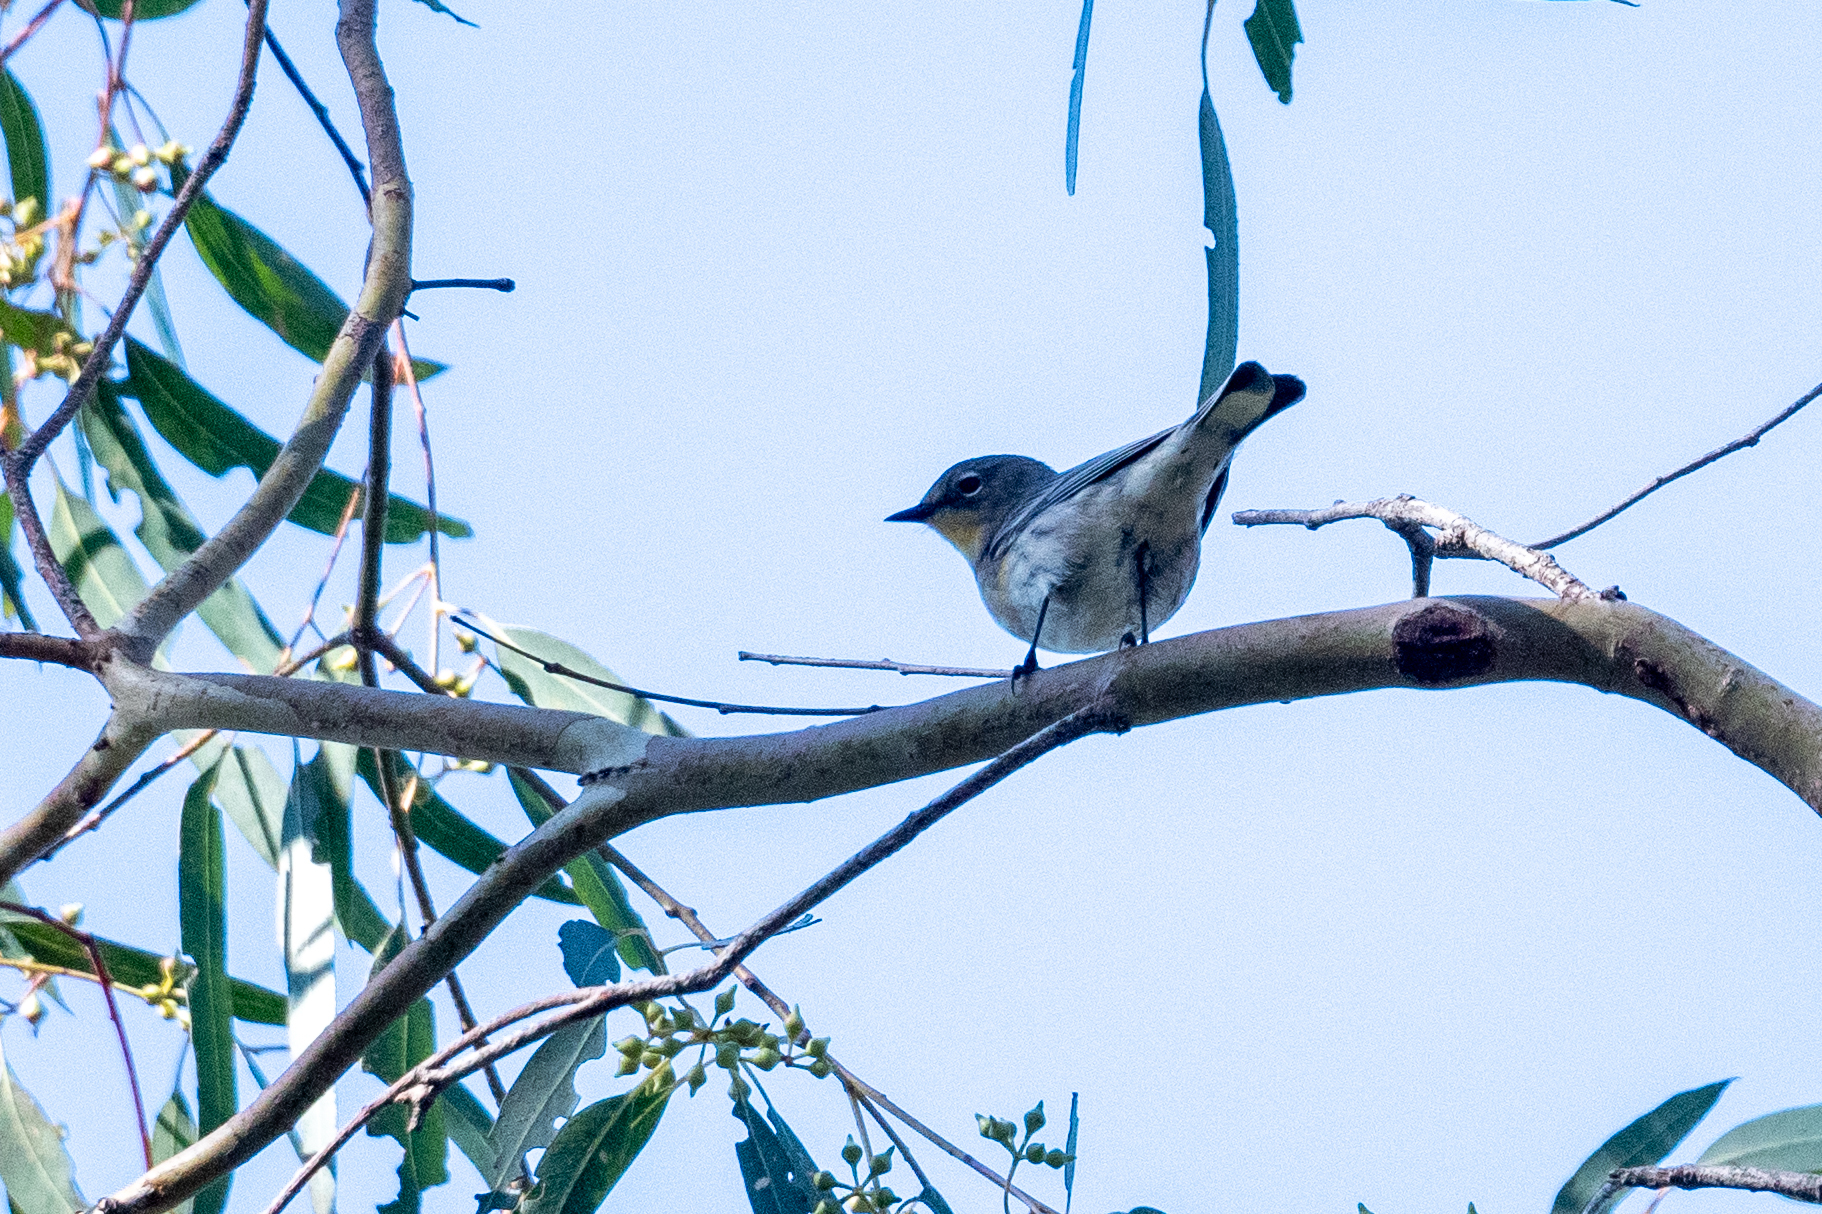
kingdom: Animalia
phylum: Chordata
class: Aves
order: Passeriformes
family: Parulidae
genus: Setophaga
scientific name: Setophaga coronata
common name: Myrtle warbler
